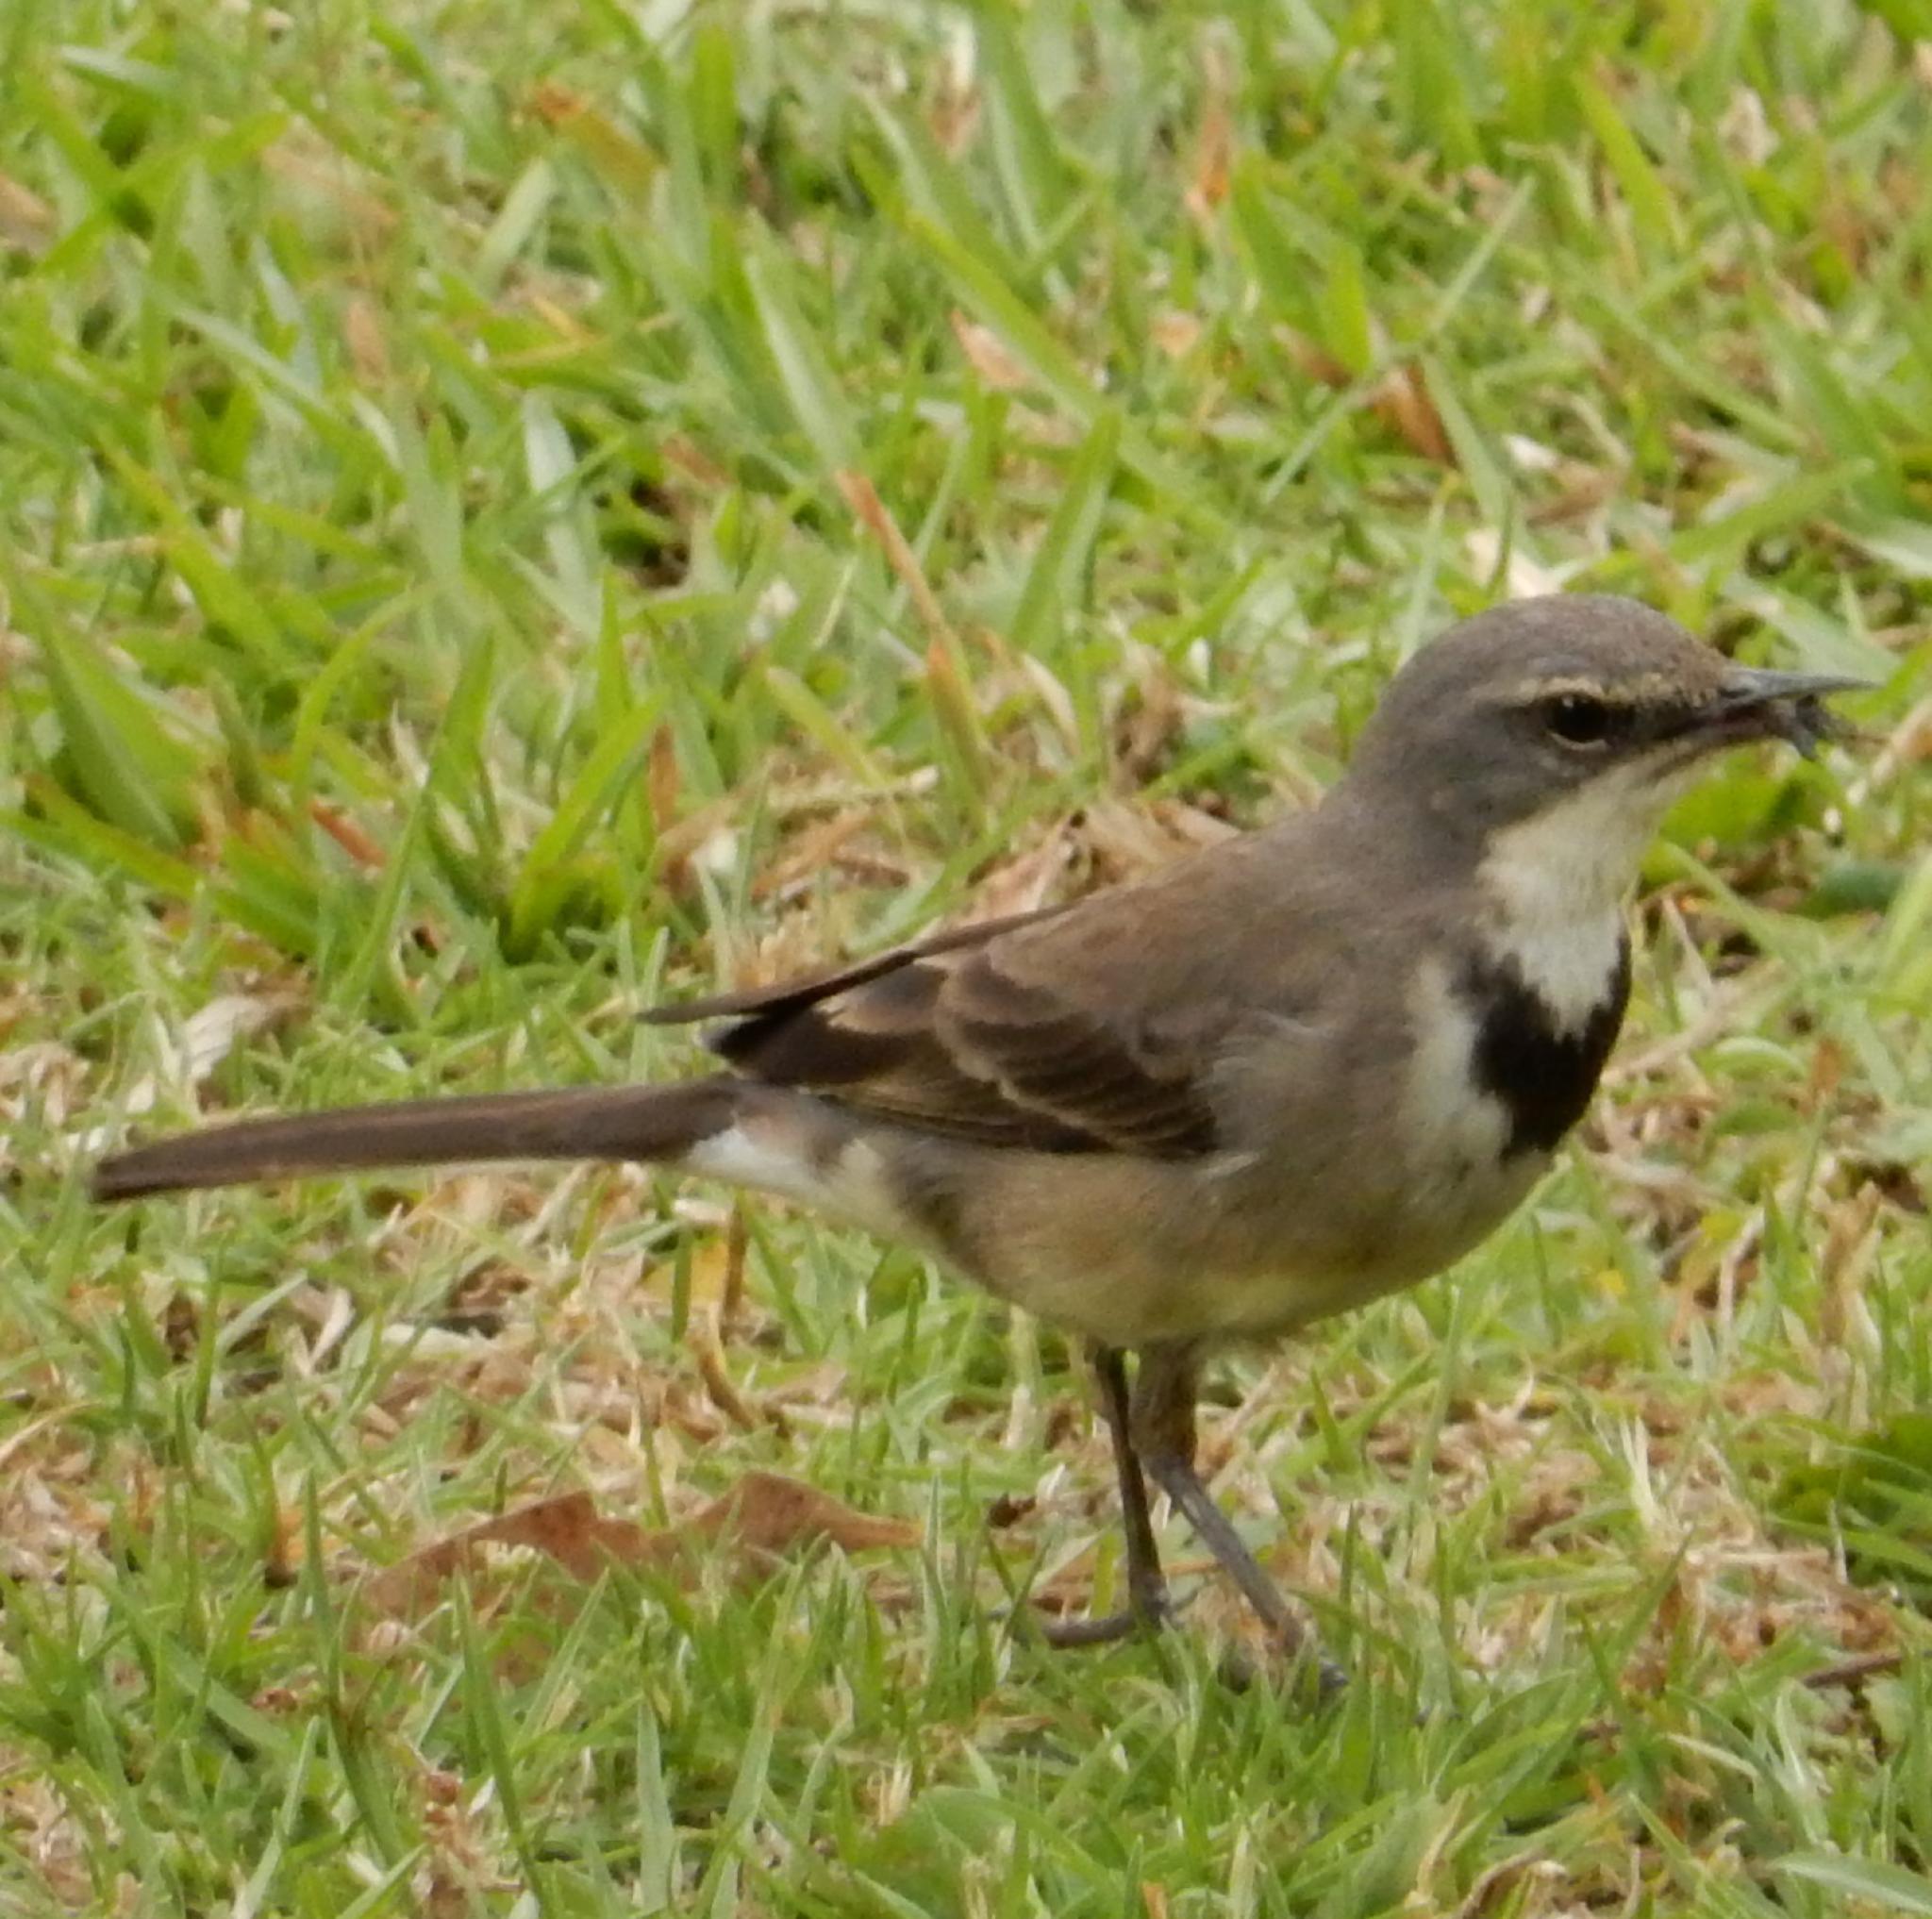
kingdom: Animalia
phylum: Chordata
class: Aves
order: Passeriformes
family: Motacillidae
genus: Motacilla
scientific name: Motacilla capensis
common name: Cape wagtail
